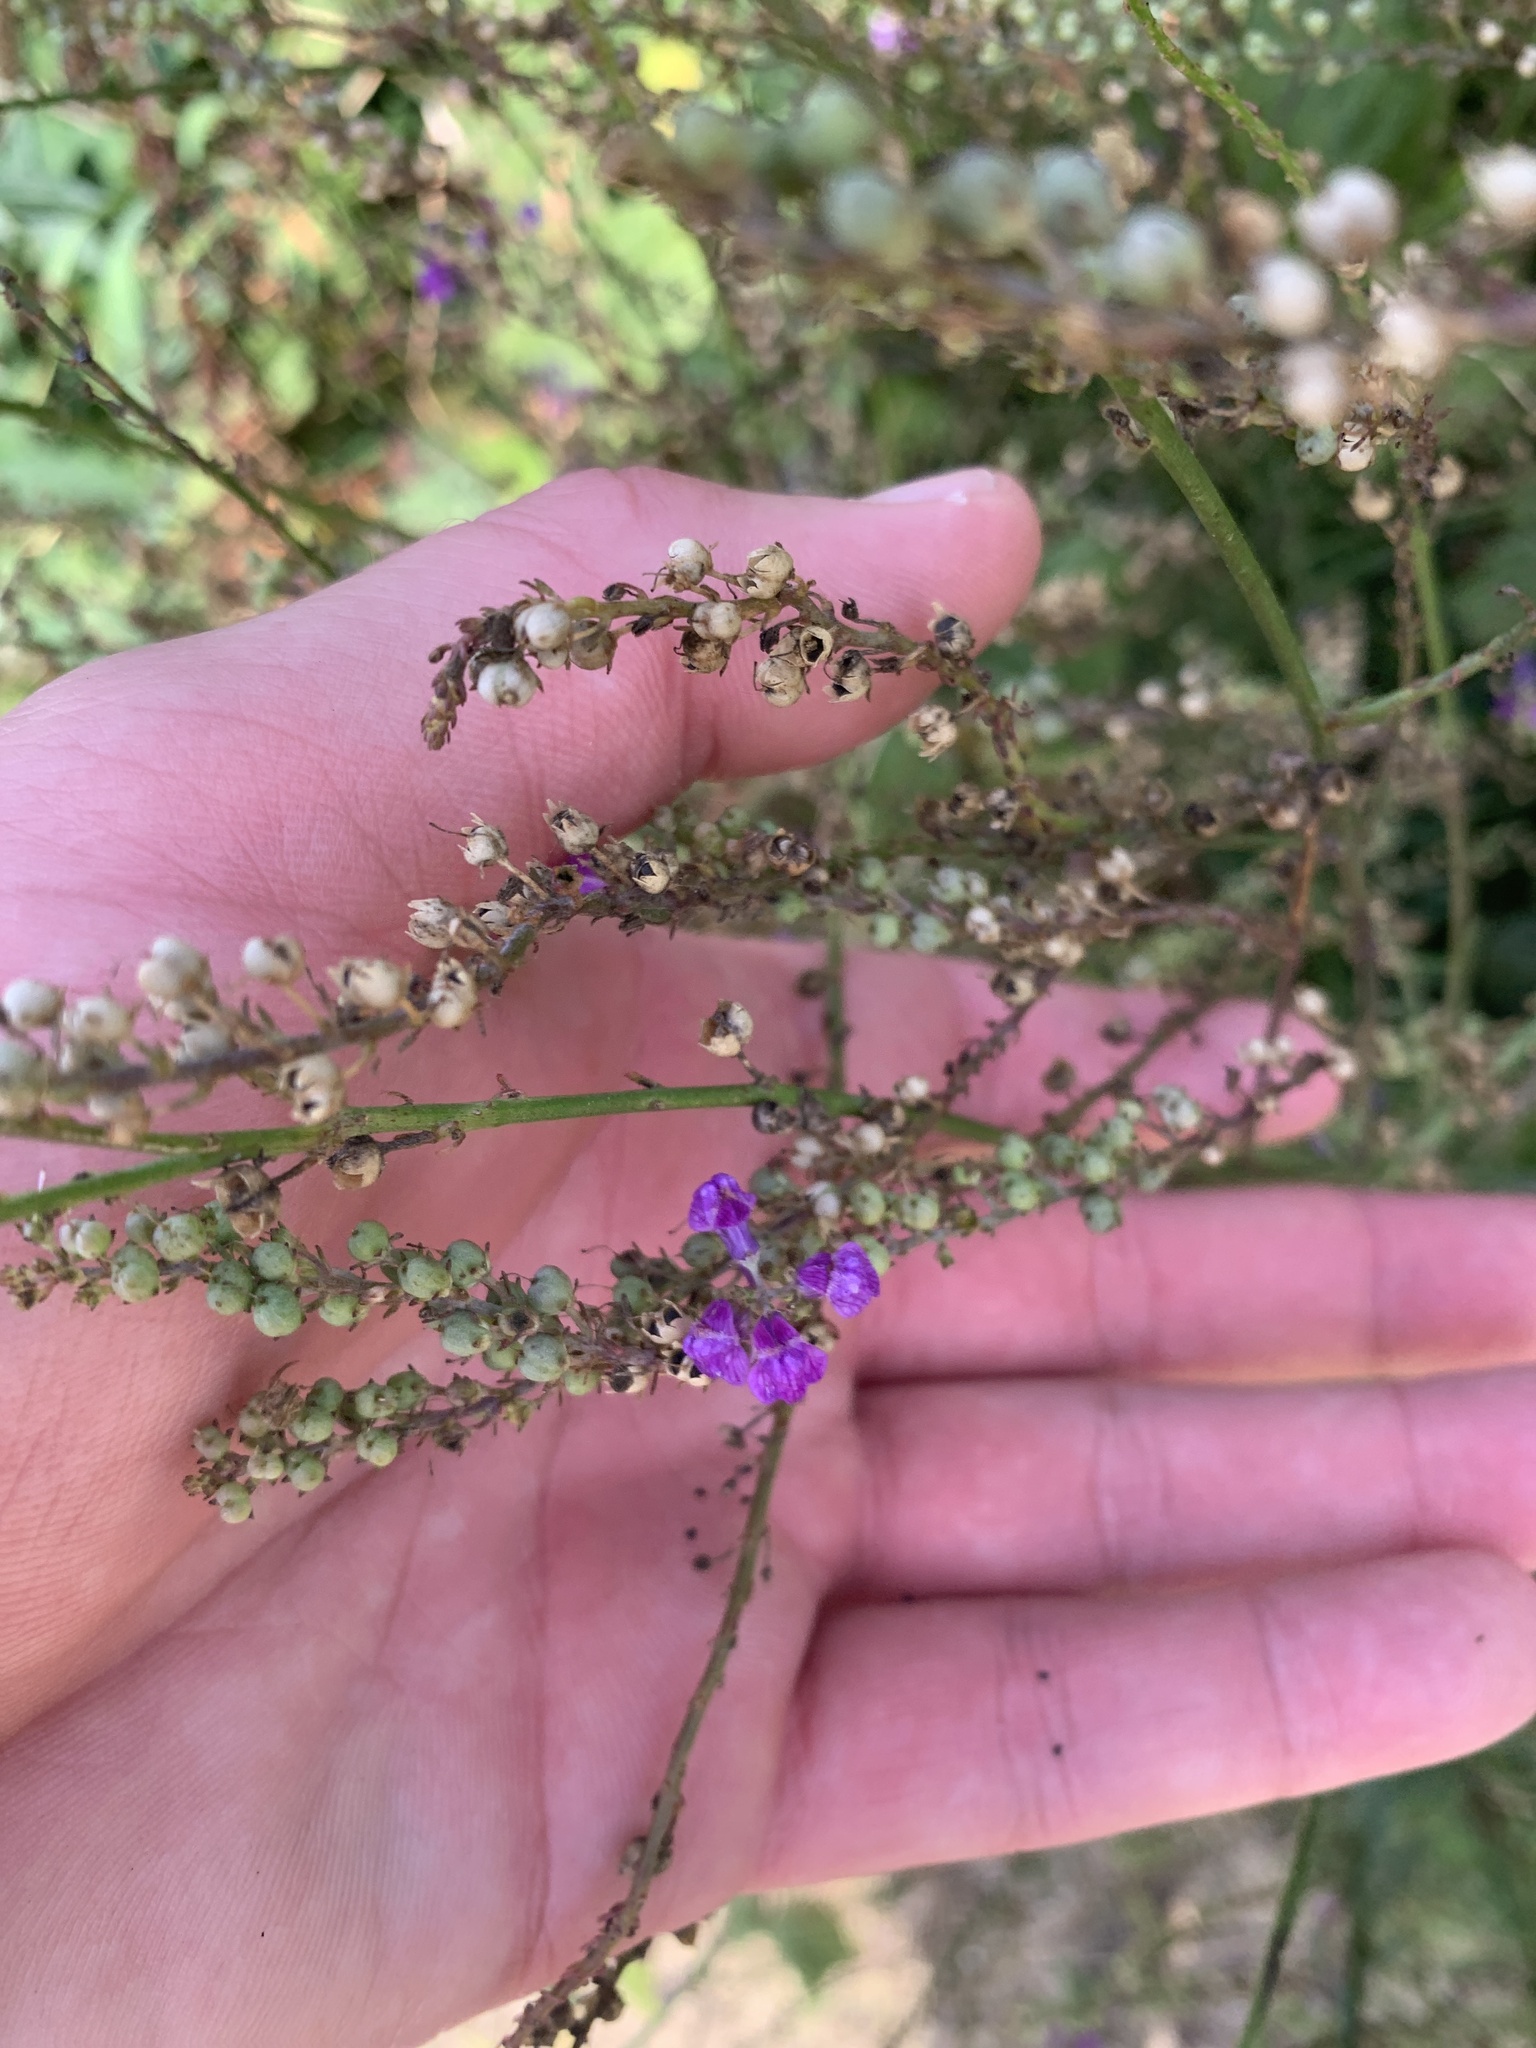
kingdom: Plantae
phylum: Tracheophyta
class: Magnoliopsida
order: Lamiales
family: Plantaginaceae
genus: Linaria
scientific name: Linaria purpurea
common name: Purple toadflax
